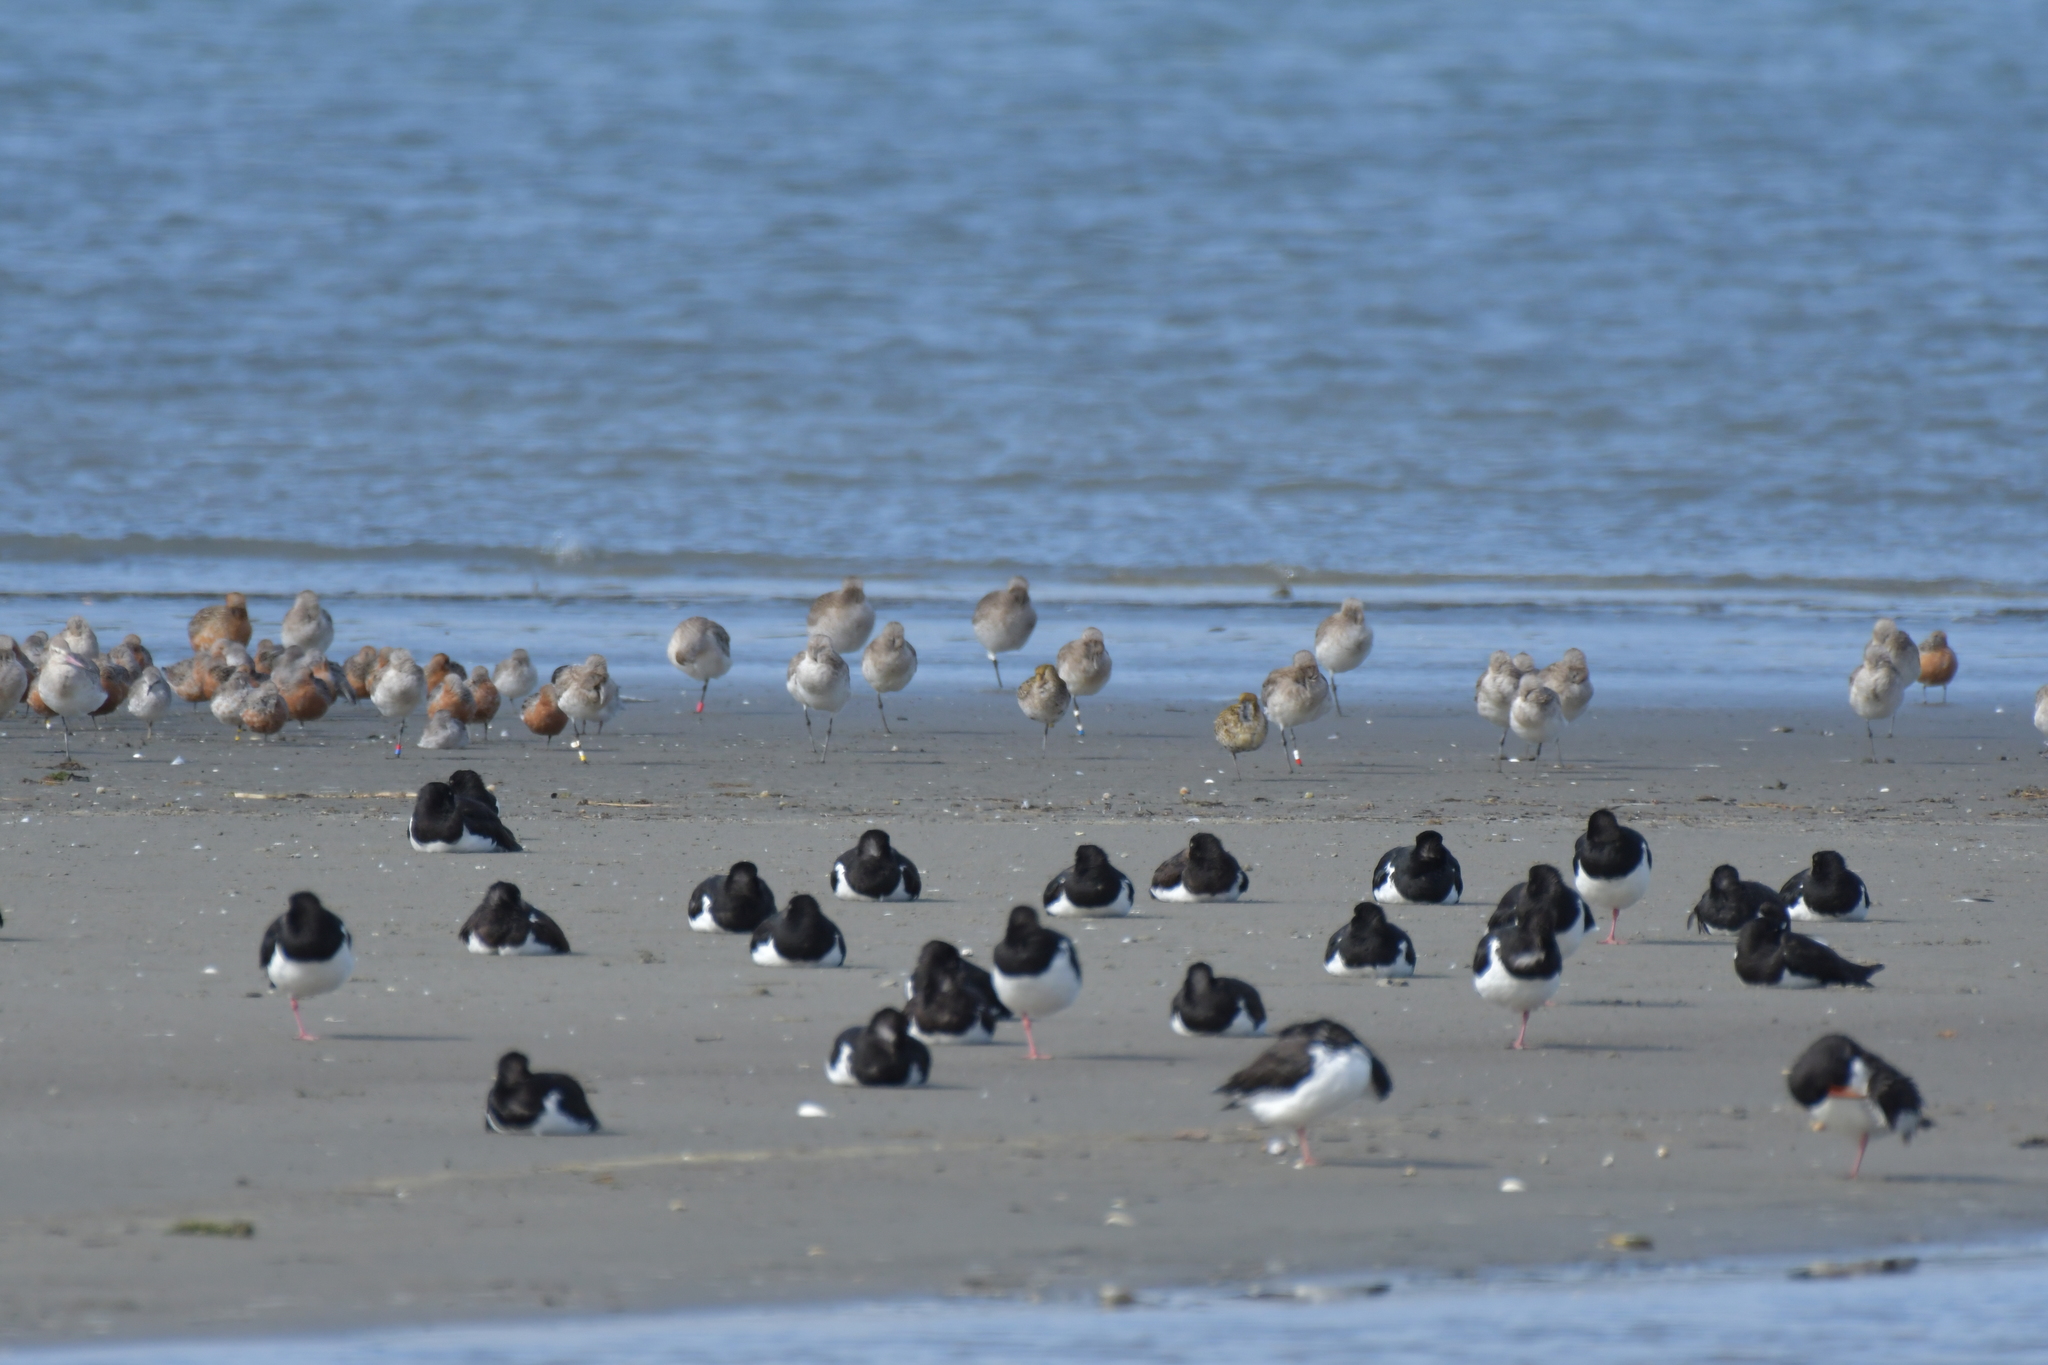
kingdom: Animalia
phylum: Chordata
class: Aves
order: Charadriiformes
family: Charadriidae
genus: Pluvialis
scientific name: Pluvialis fulva
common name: Pacific golden plover
